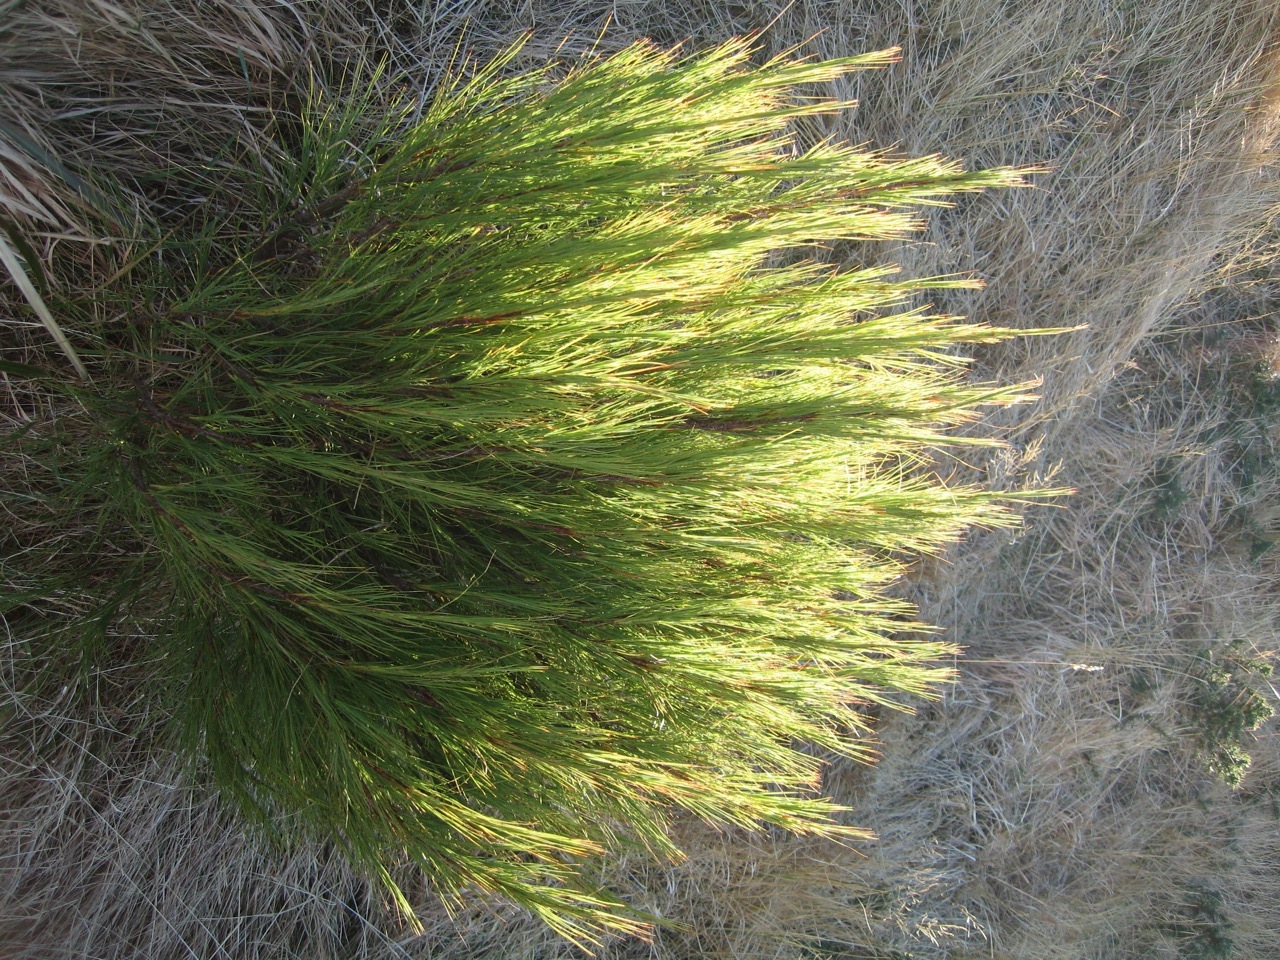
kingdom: Plantae
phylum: Tracheophyta
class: Magnoliopsida
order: Ericales
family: Ericaceae
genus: Dracophyllum
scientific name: Dracophyllum acerosum
